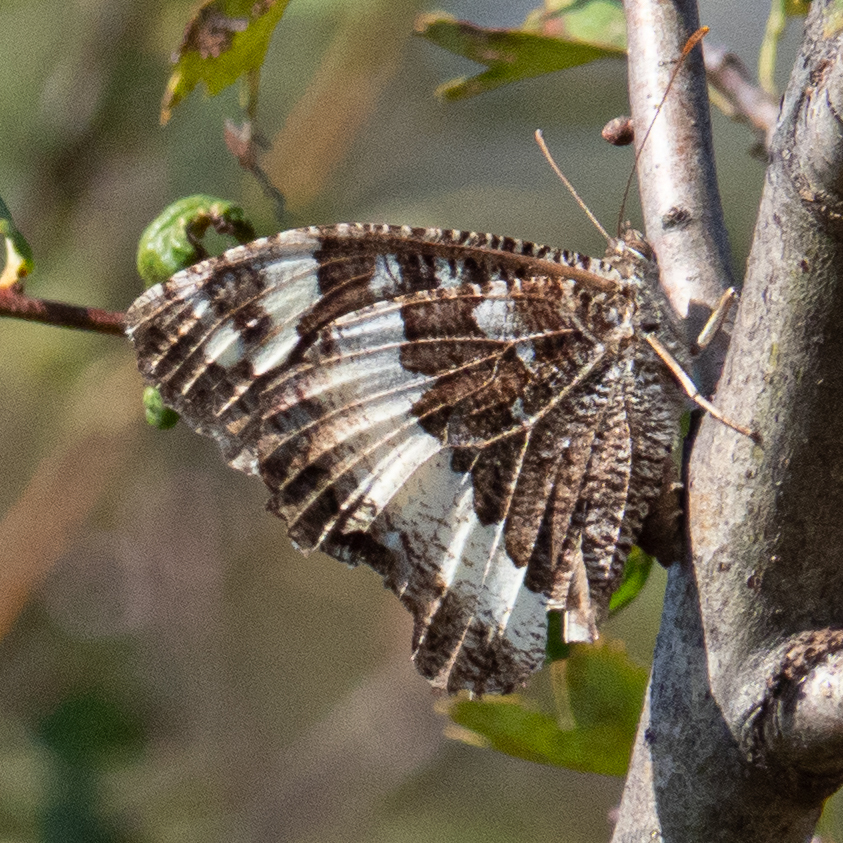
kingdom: Animalia
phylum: Arthropoda
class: Insecta
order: Lepidoptera
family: Lycaenidae
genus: Loweia
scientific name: Loweia tityrus
